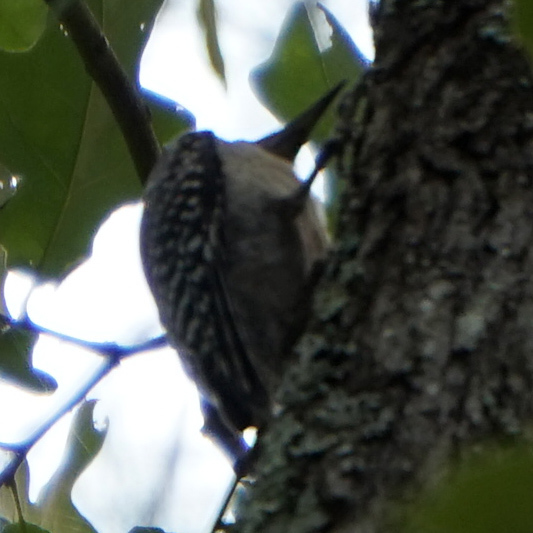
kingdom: Animalia
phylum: Chordata
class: Aves
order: Piciformes
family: Picidae
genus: Melanerpes
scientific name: Melanerpes carolinus
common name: Red-bellied woodpecker
